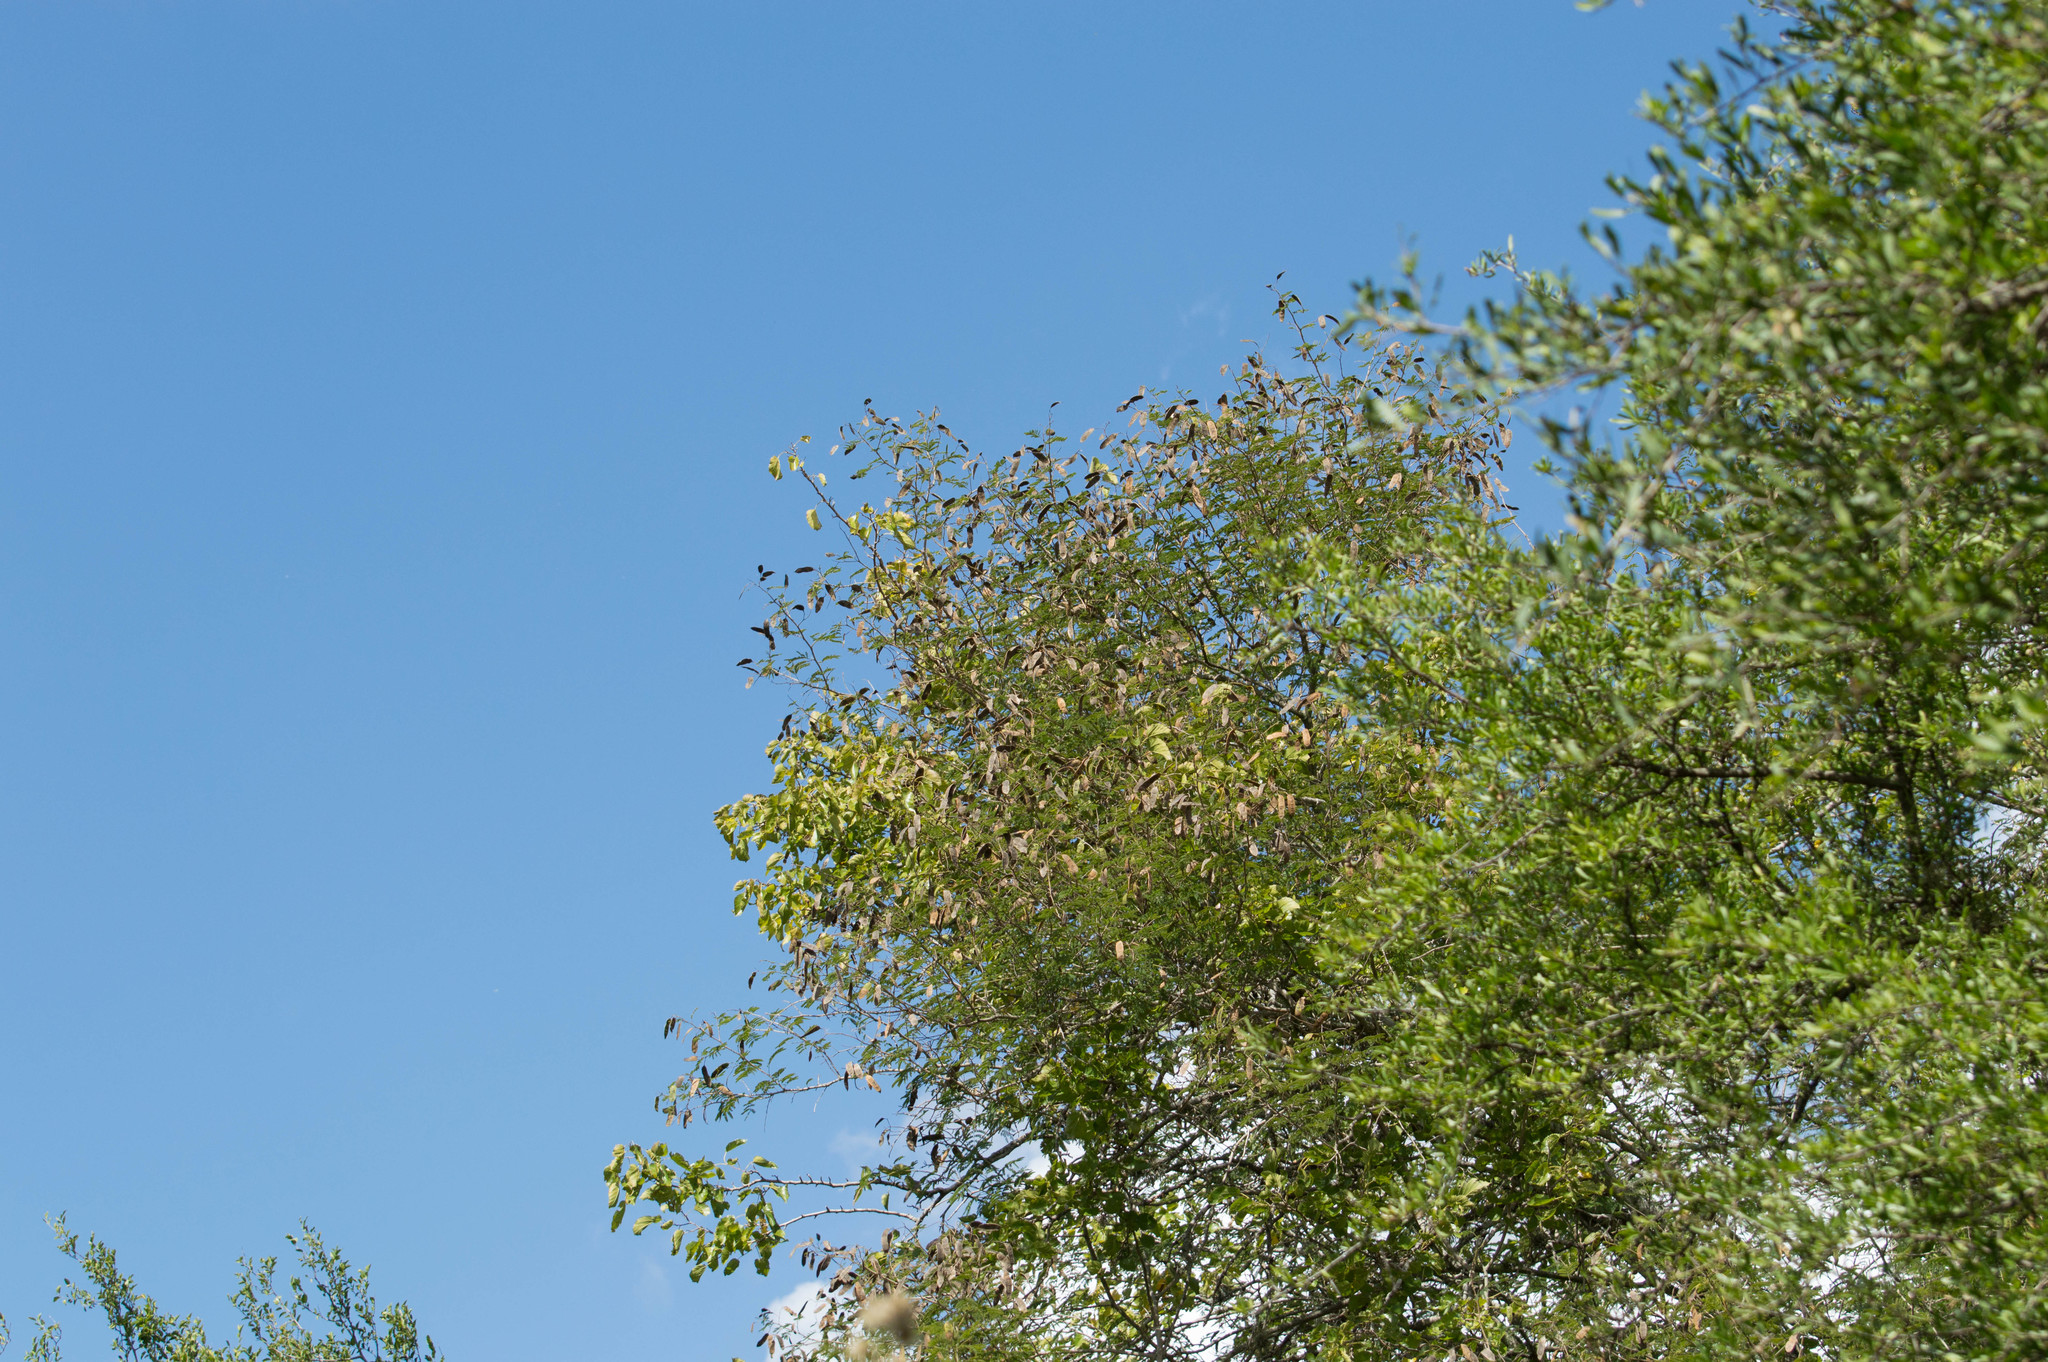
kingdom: Plantae
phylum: Tracheophyta
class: Magnoliopsida
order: Fabales
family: Fabaceae
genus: Senegalia
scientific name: Senegalia bonariensis
